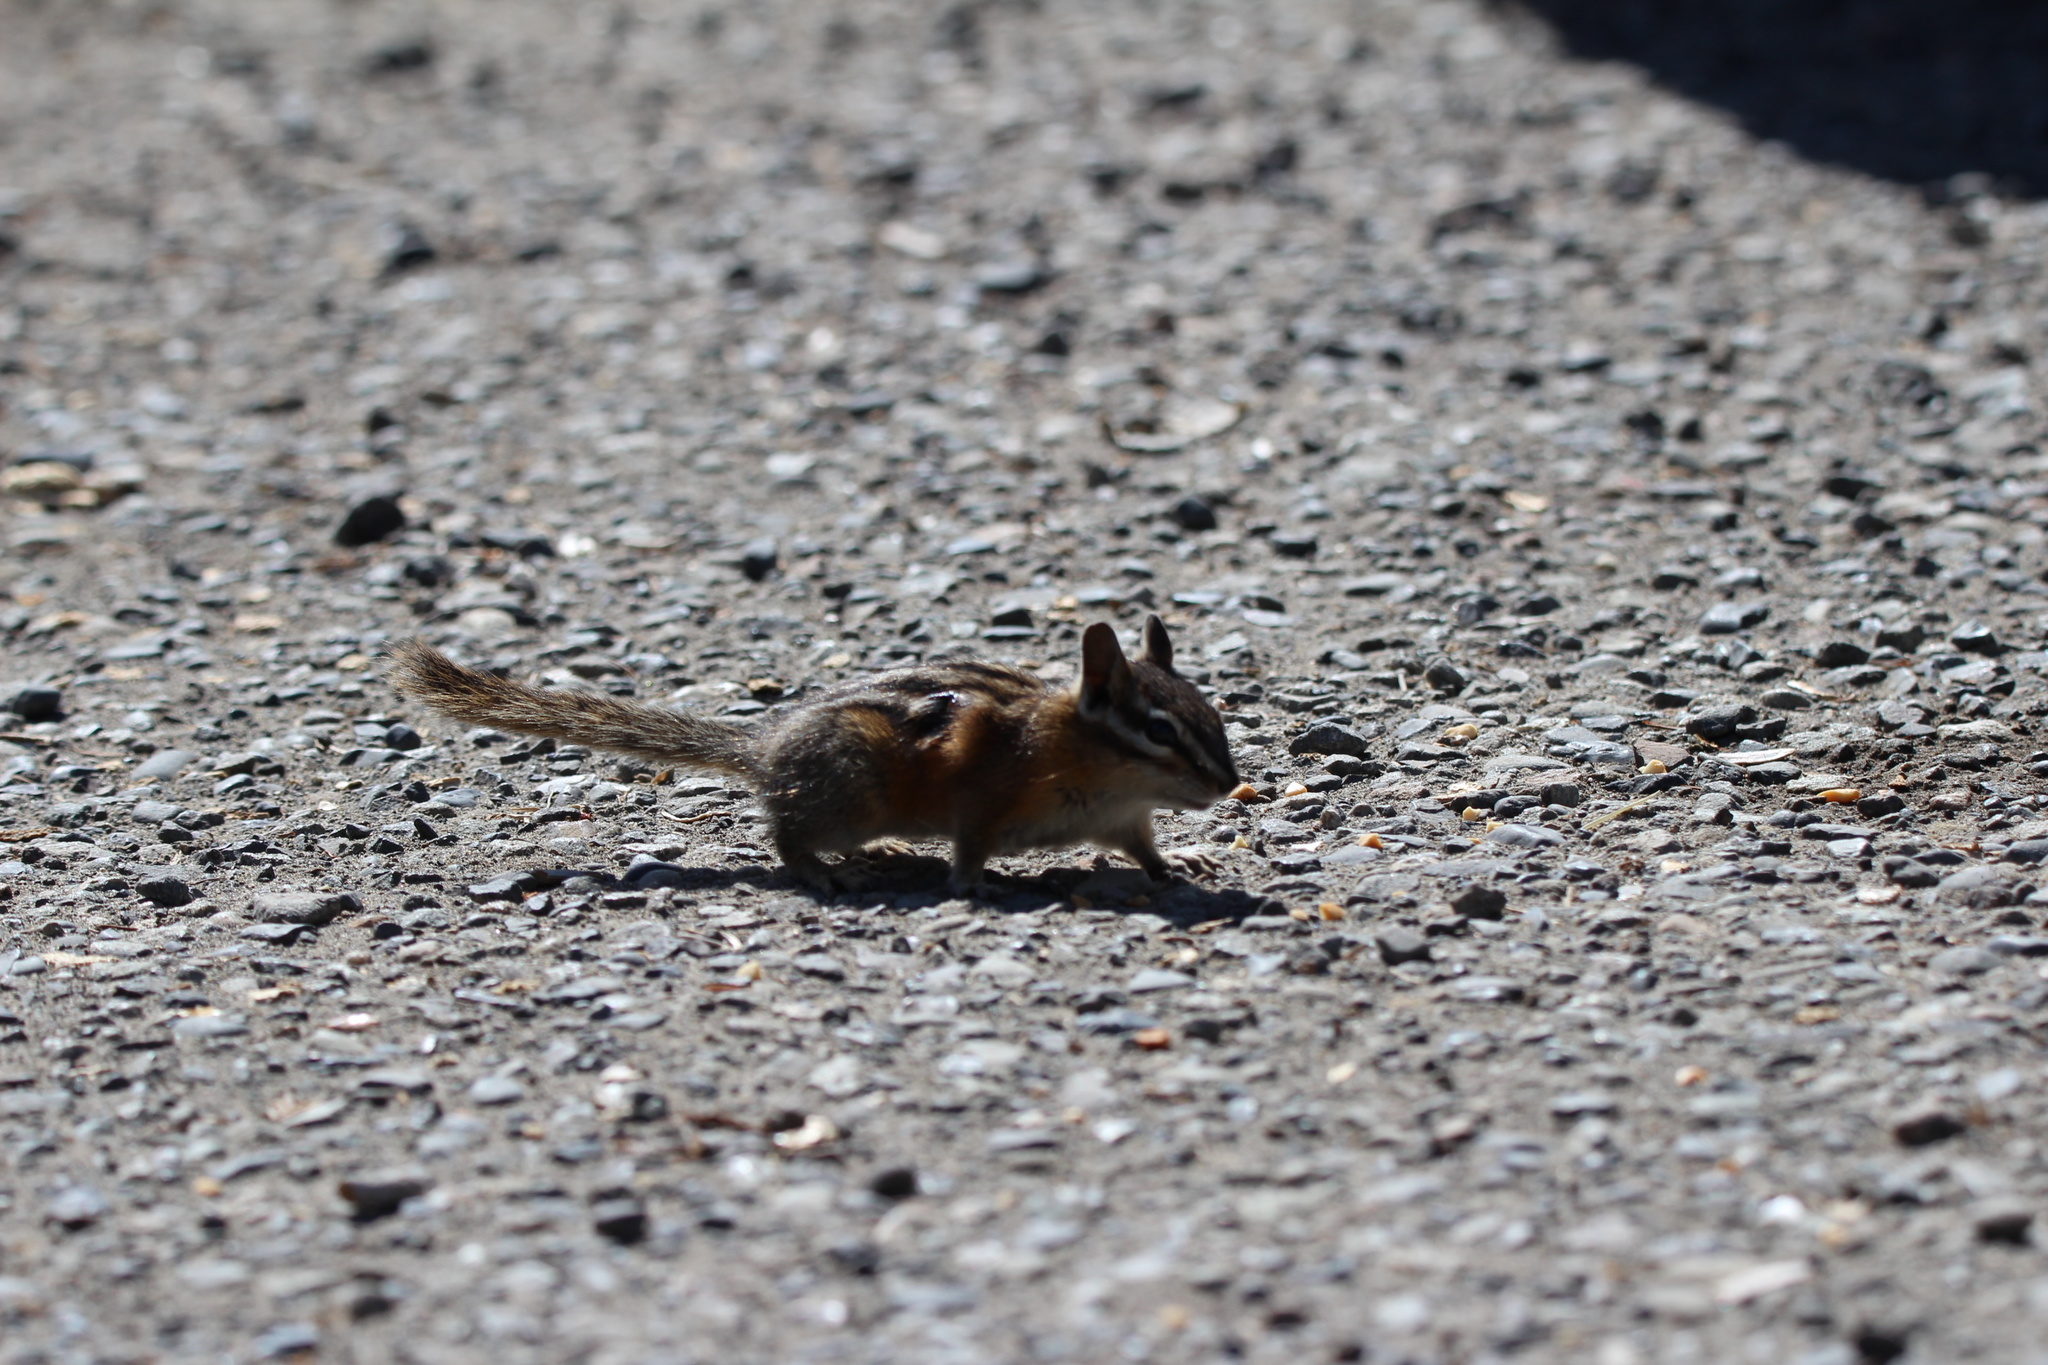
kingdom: Animalia
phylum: Chordata
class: Mammalia
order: Rodentia
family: Sciuridae
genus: Tamias
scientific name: Tamias amoenus
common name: Yellow-pine chipmunk
